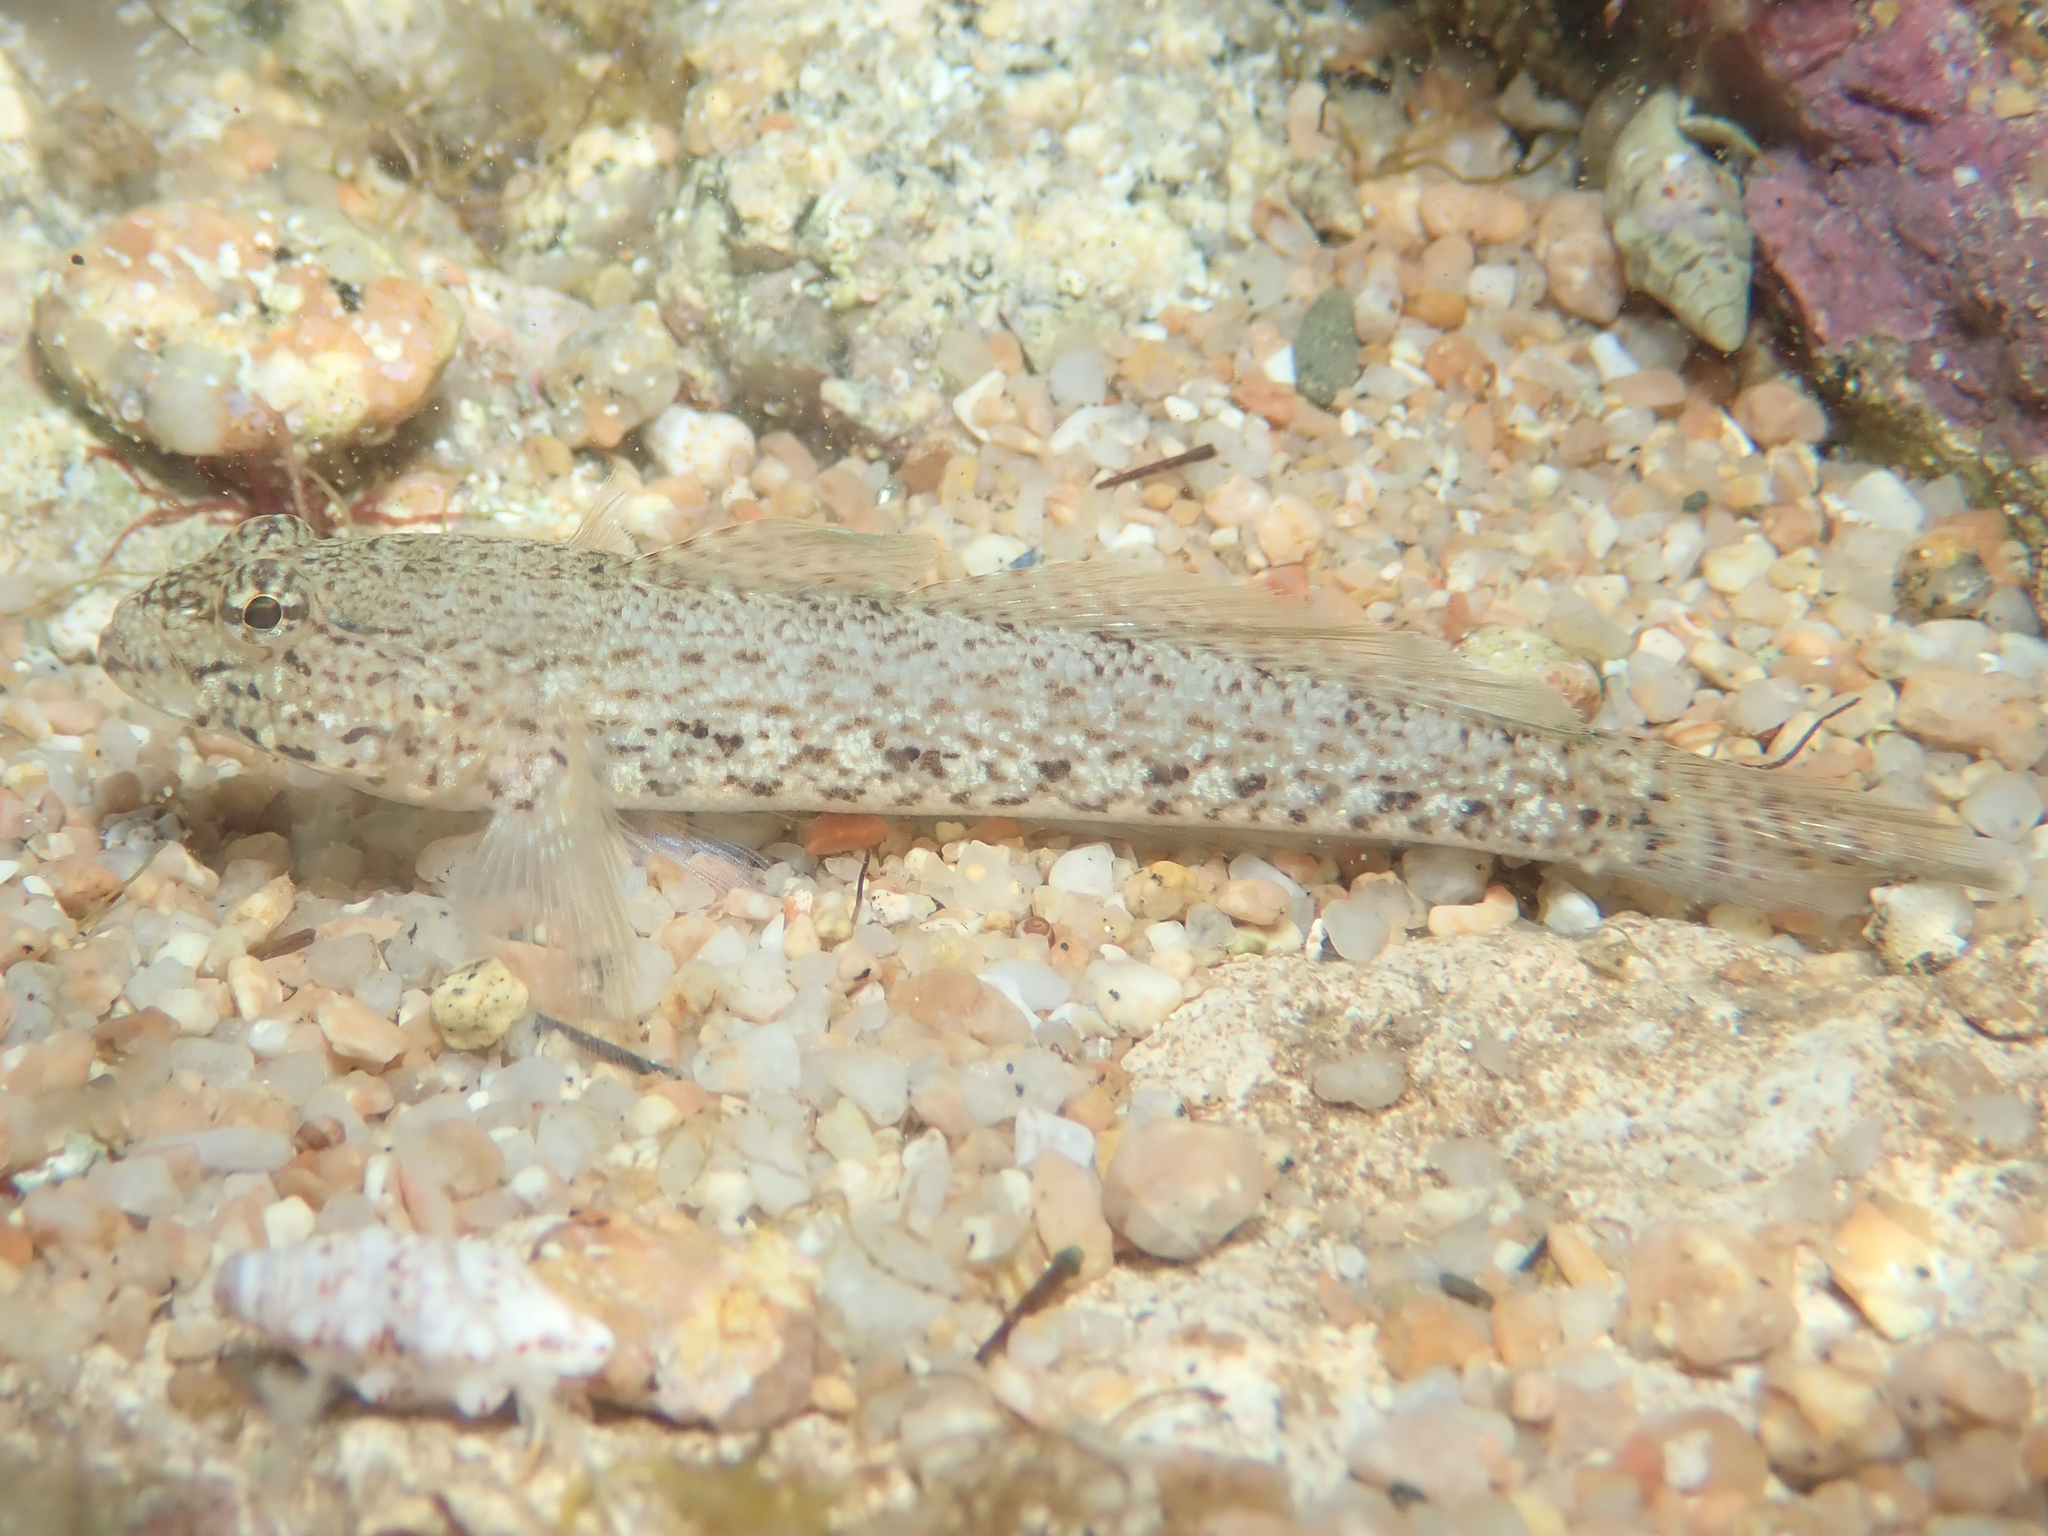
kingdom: Animalia
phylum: Chordata
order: Perciformes
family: Gobiidae
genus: Gobius
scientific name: Gobius incognitus
